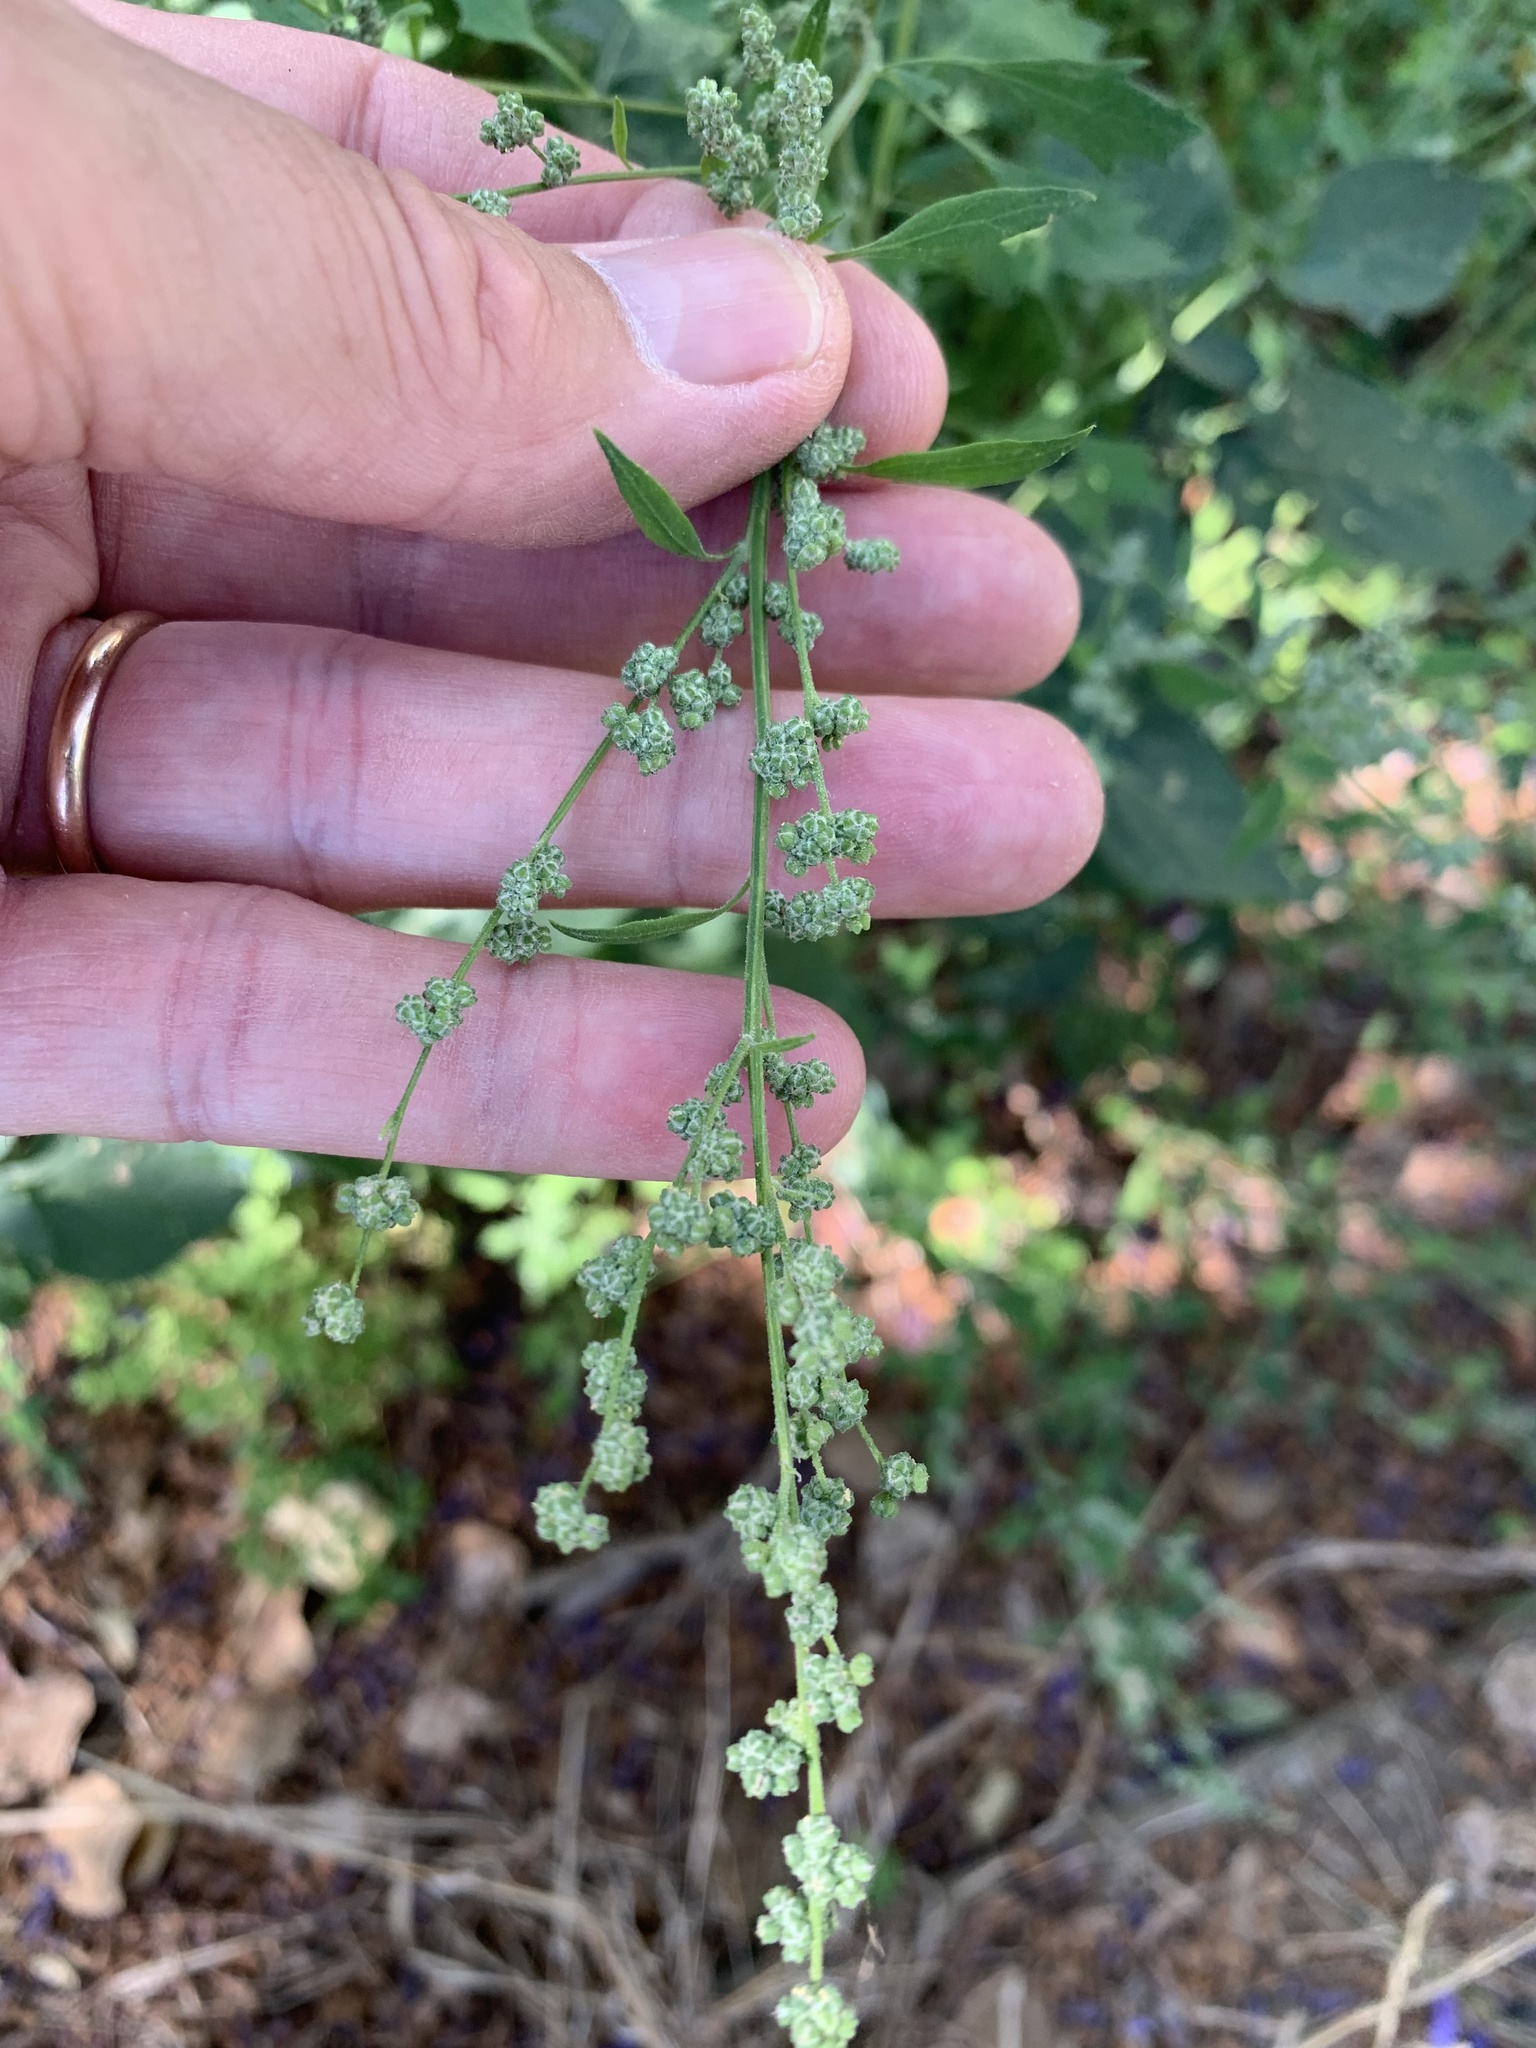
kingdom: Plantae
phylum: Tracheophyta
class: Magnoliopsida
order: Caryophyllales
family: Amaranthaceae
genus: Chenopodium
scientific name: Chenopodium album
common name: Fat-hen
